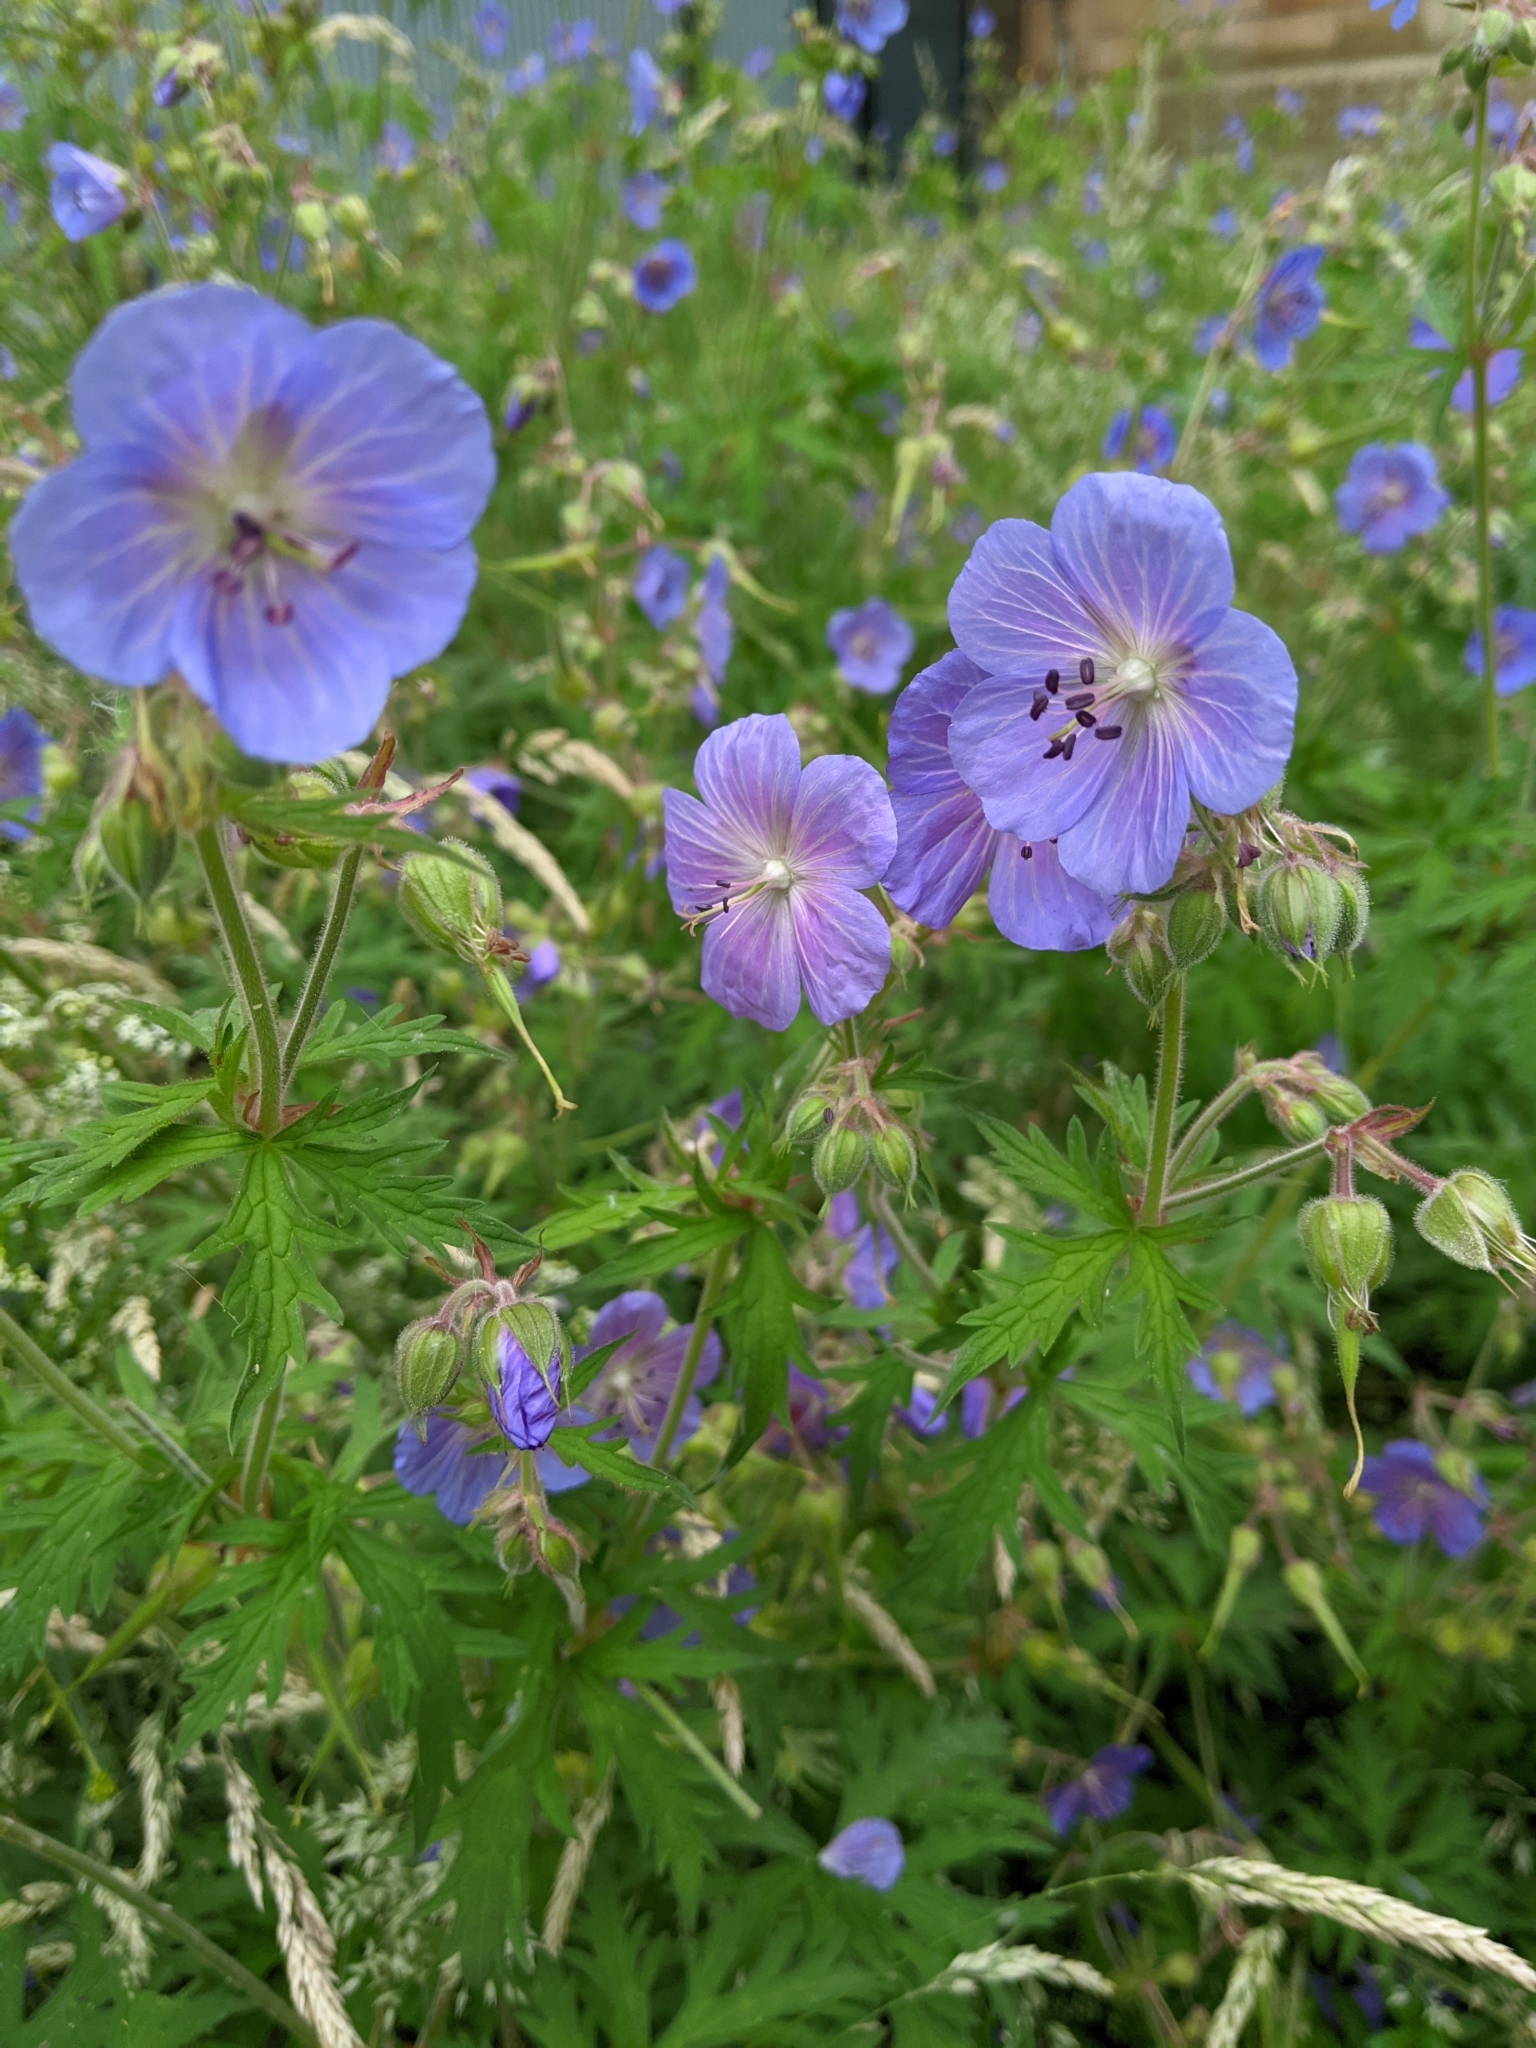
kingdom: Plantae
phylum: Tracheophyta
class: Magnoliopsida
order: Geraniales
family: Geraniaceae
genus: Geranium
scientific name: Geranium pratense
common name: Meadow crane's-bill
